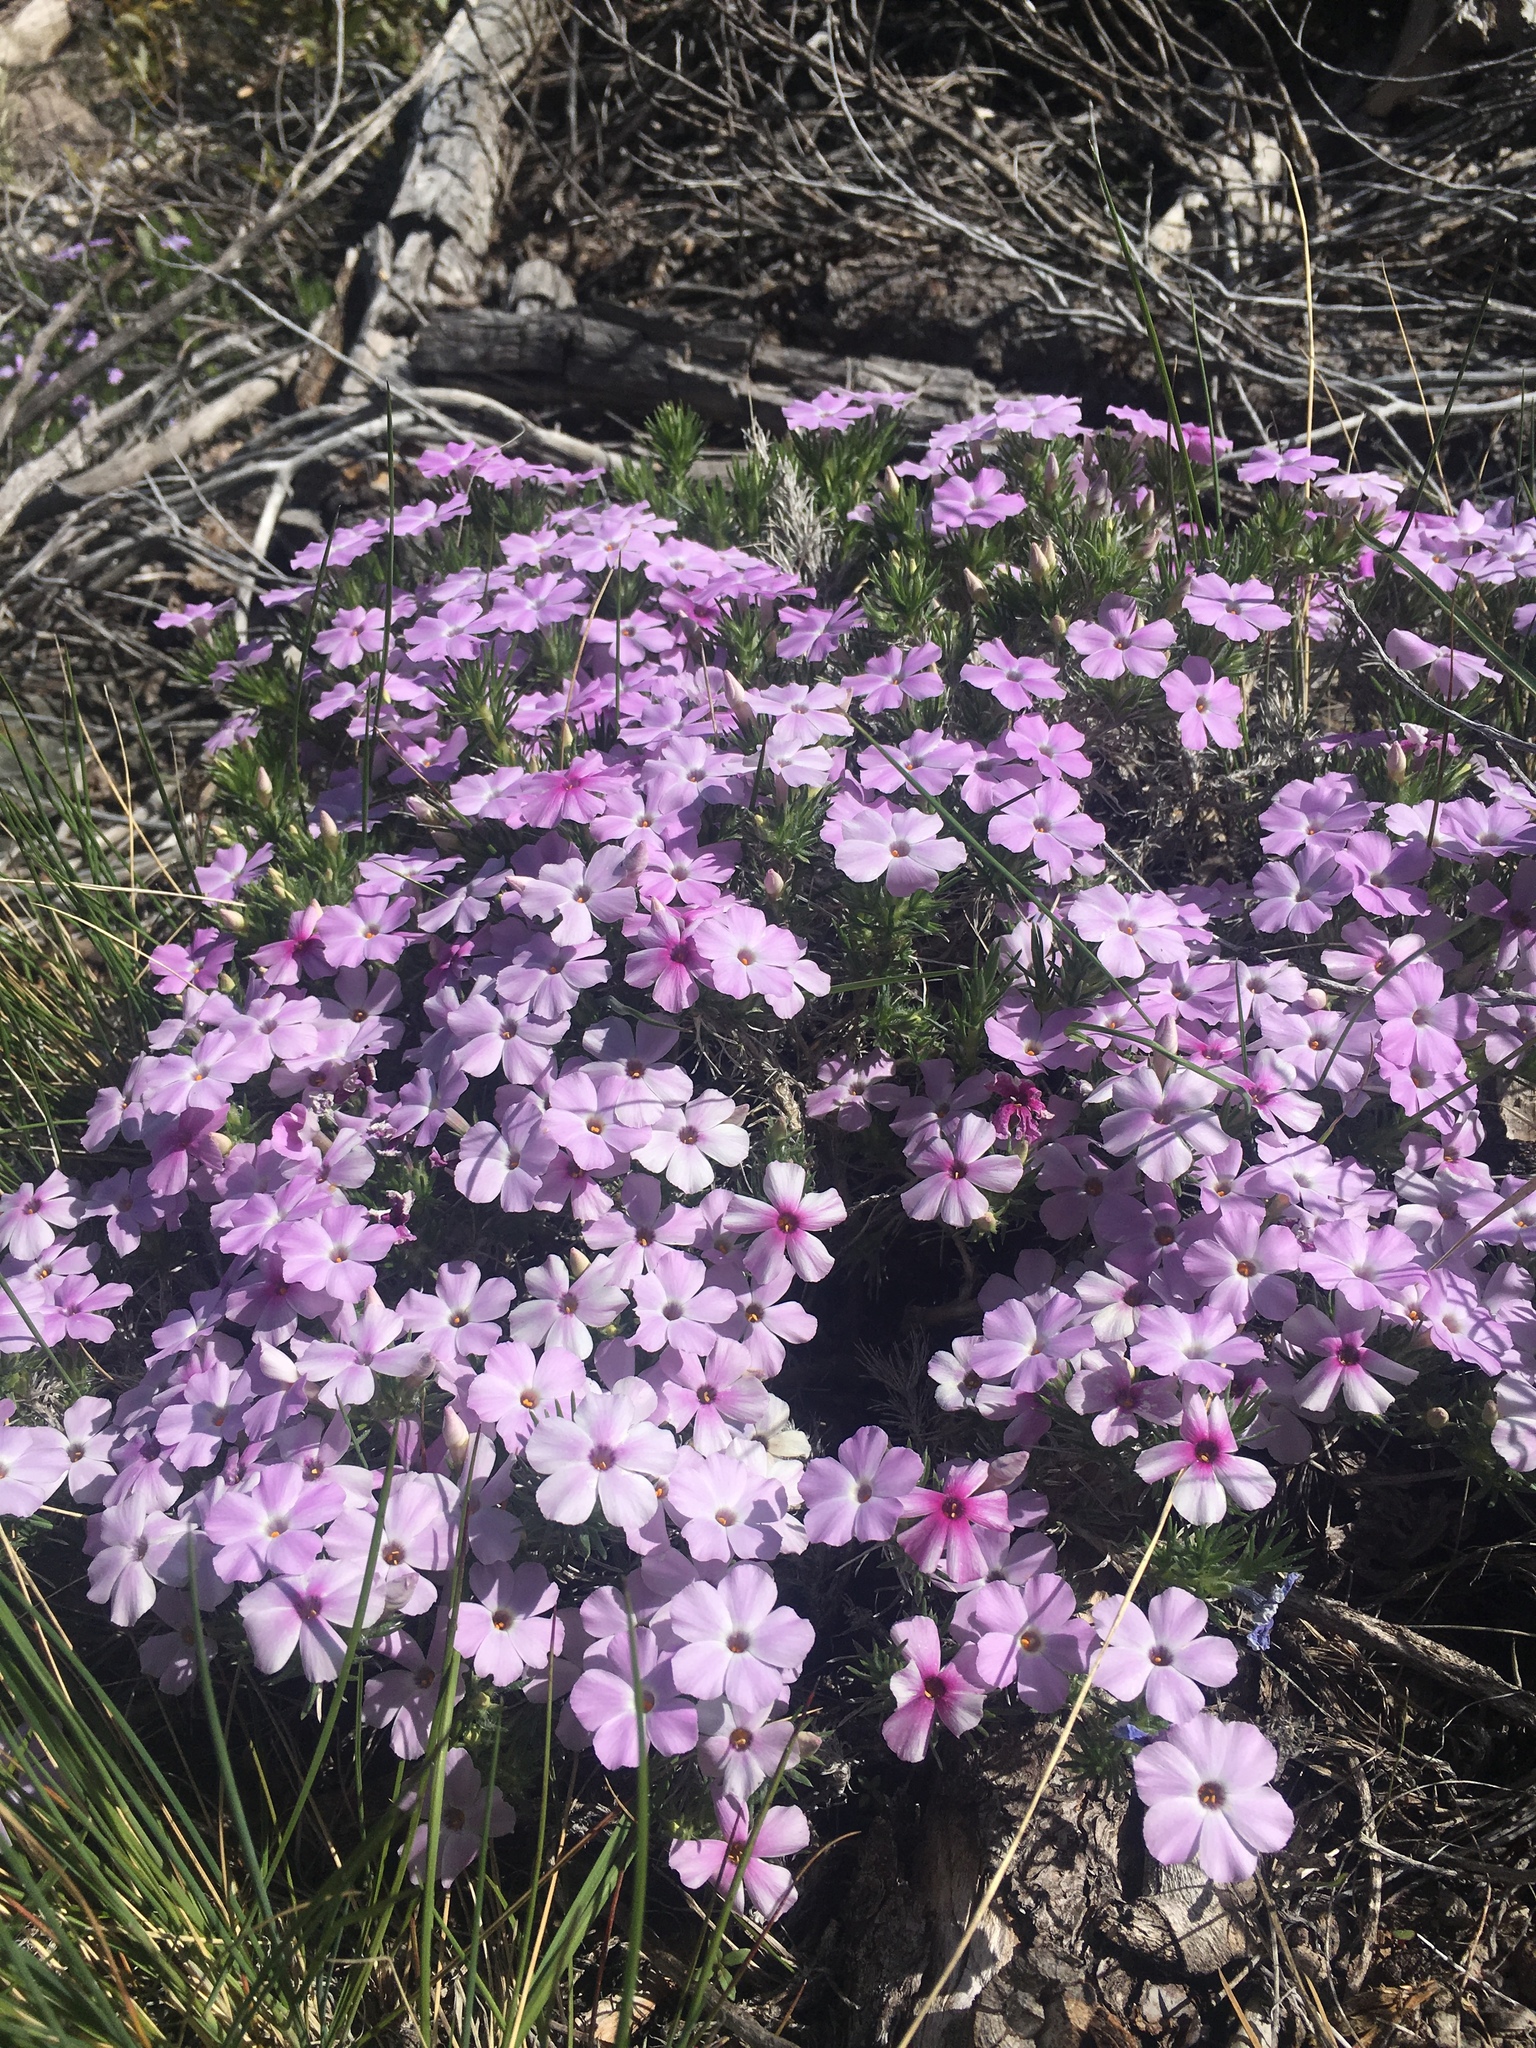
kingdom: Plantae
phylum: Tracheophyta
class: Magnoliopsida
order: Ericales
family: Polemoniaceae
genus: Phlox
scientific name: Phlox diffusa
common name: Mat phlox
